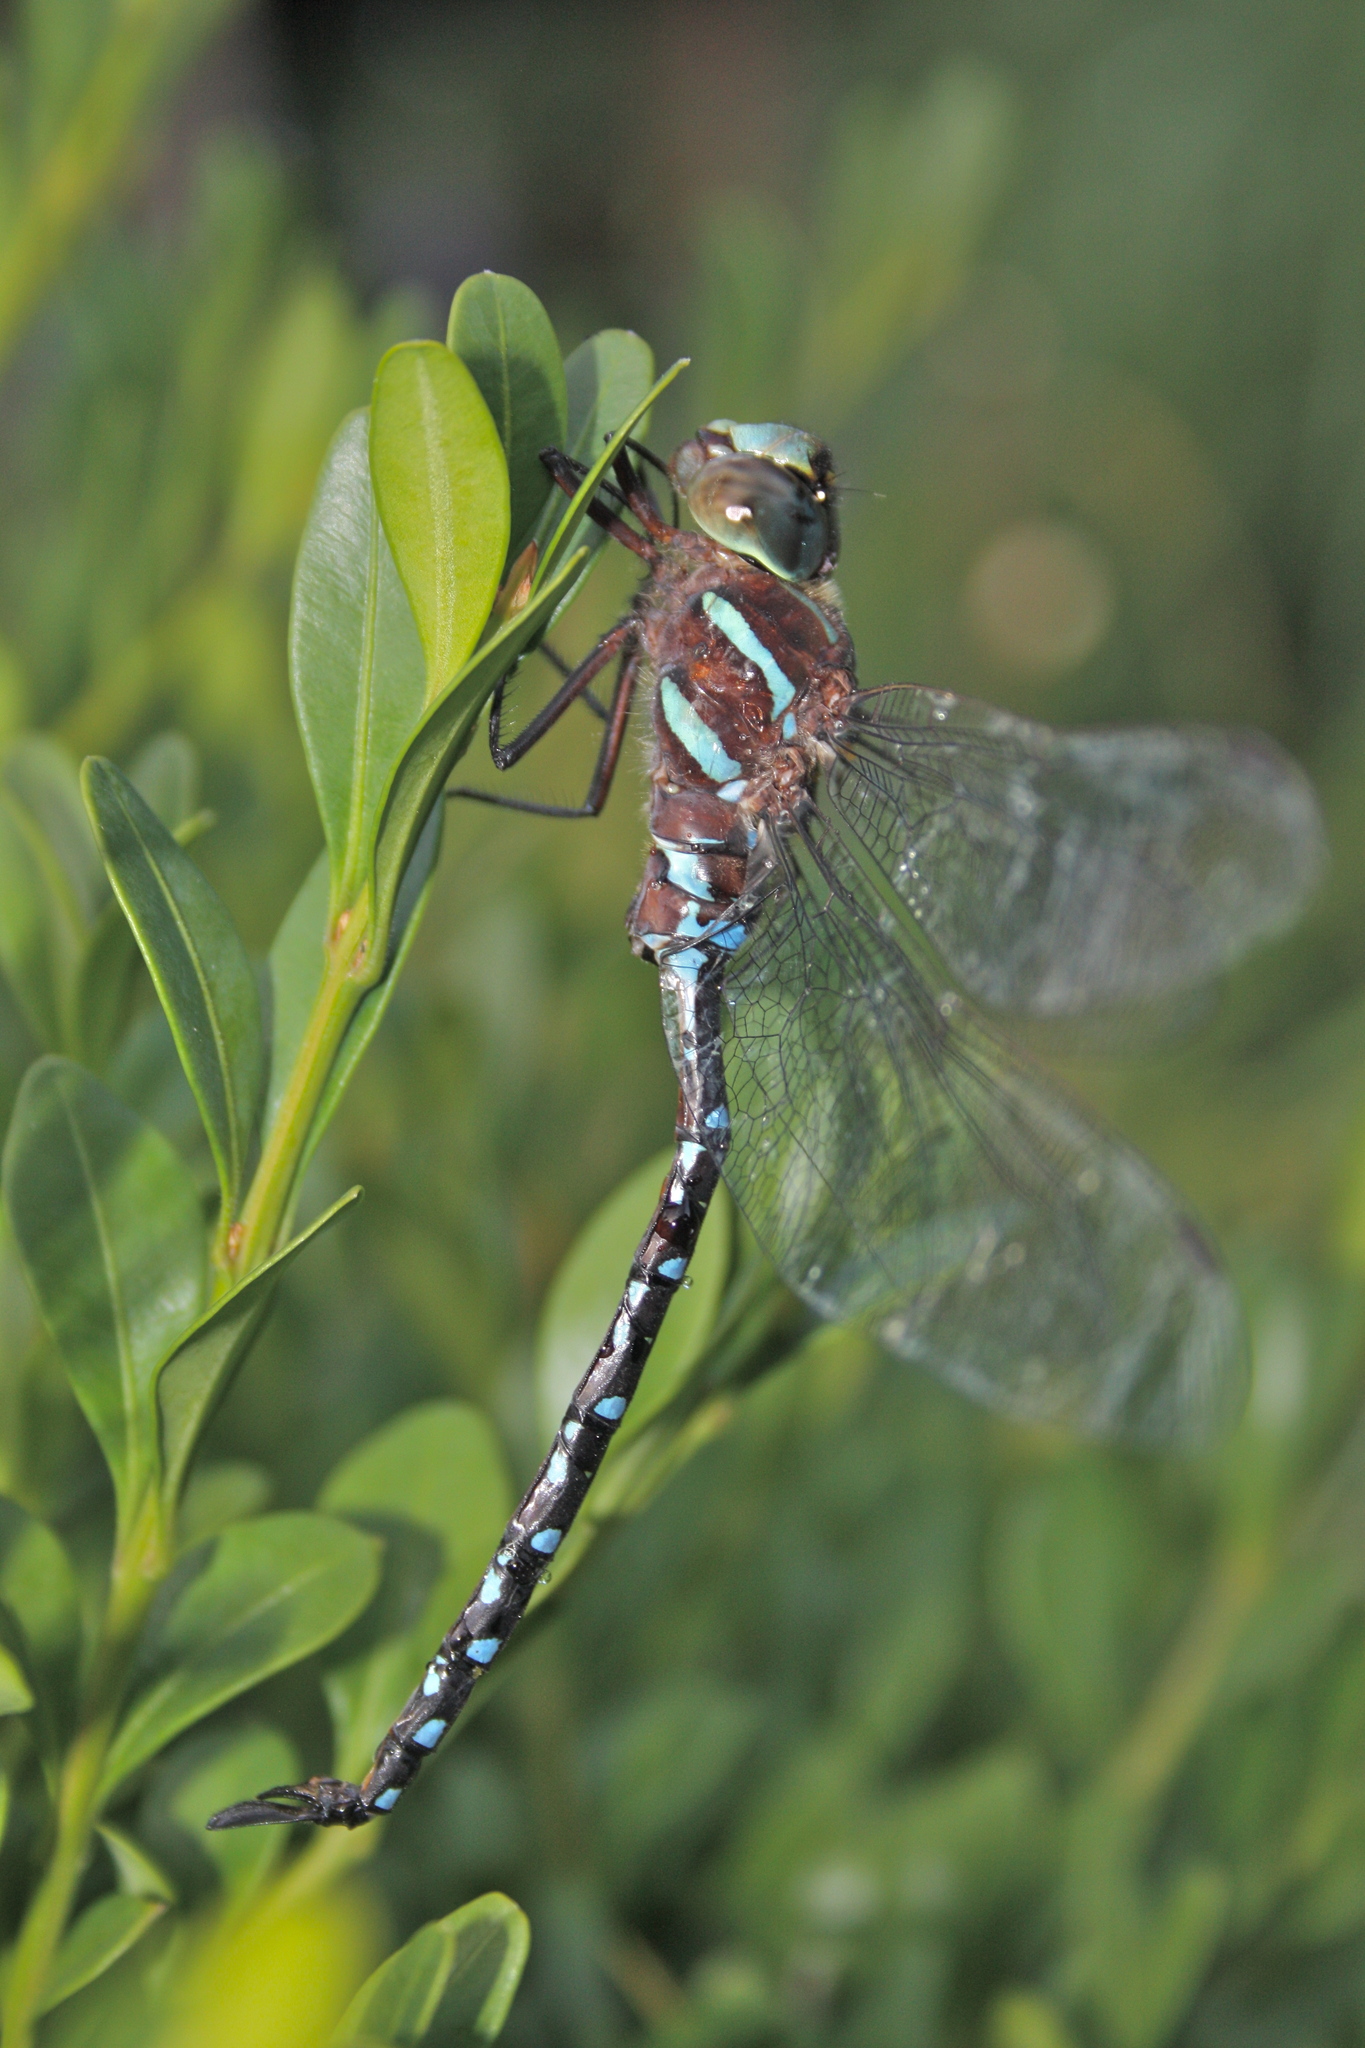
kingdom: Animalia
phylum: Arthropoda
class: Insecta
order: Odonata
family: Aeshnidae
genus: Aeshna
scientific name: Aeshna tuberculifera
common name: Aeschne à tubercules
